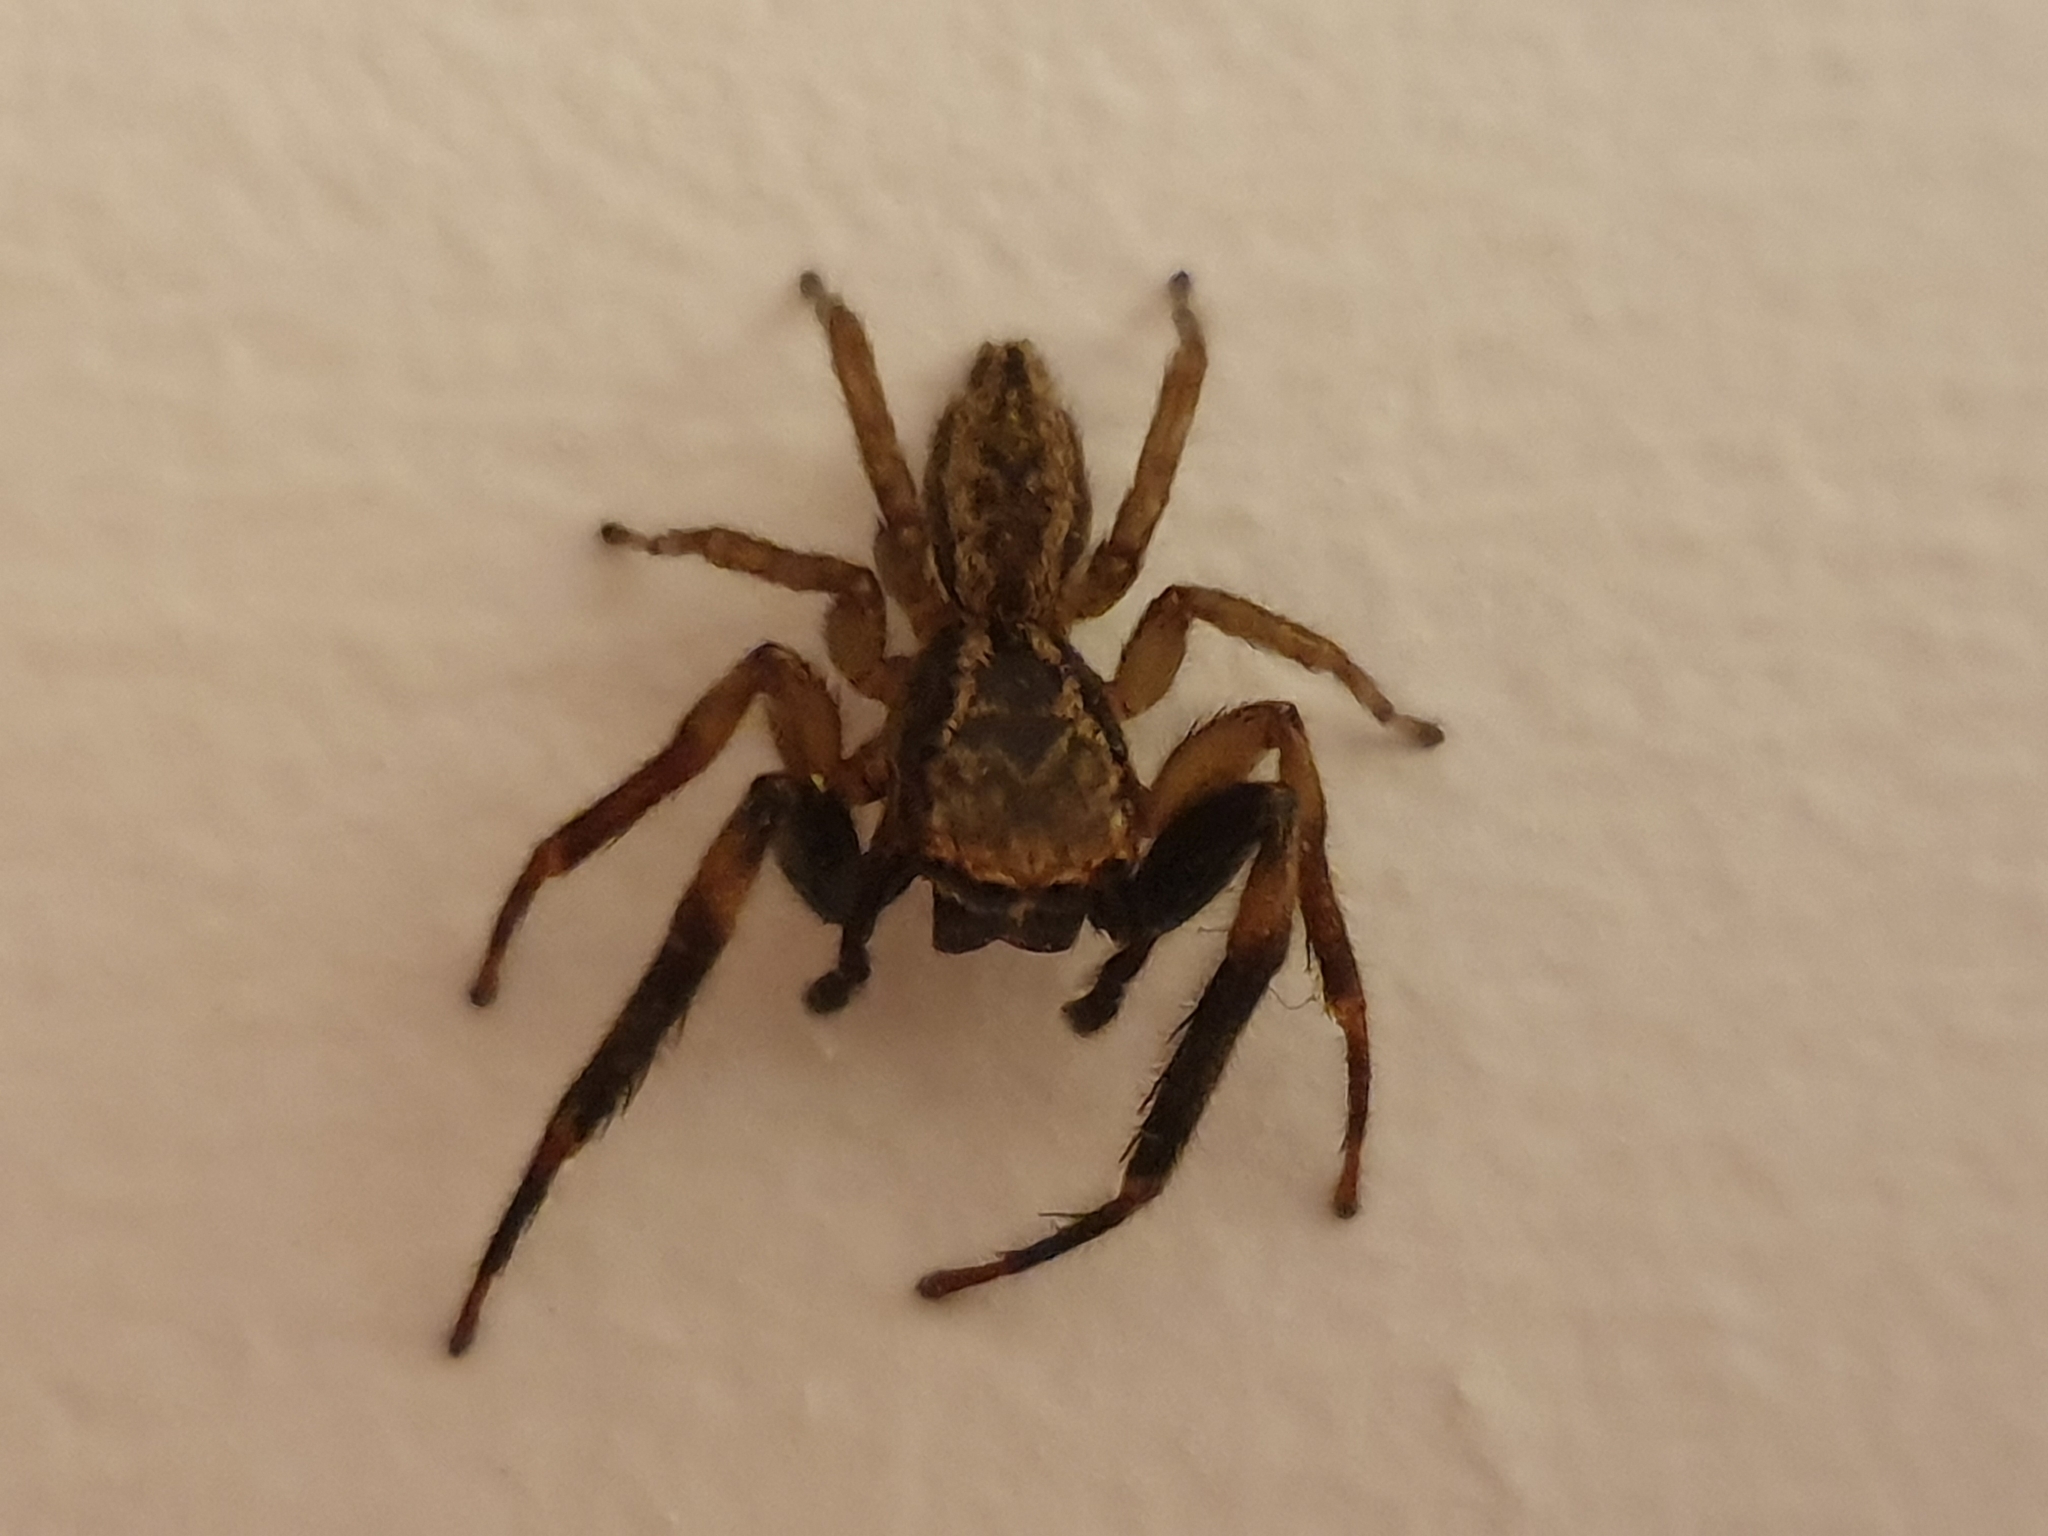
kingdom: Animalia
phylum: Arthropoda
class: Arachnida
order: Araneae
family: Salticidae
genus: Trite
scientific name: Trite auricoma
